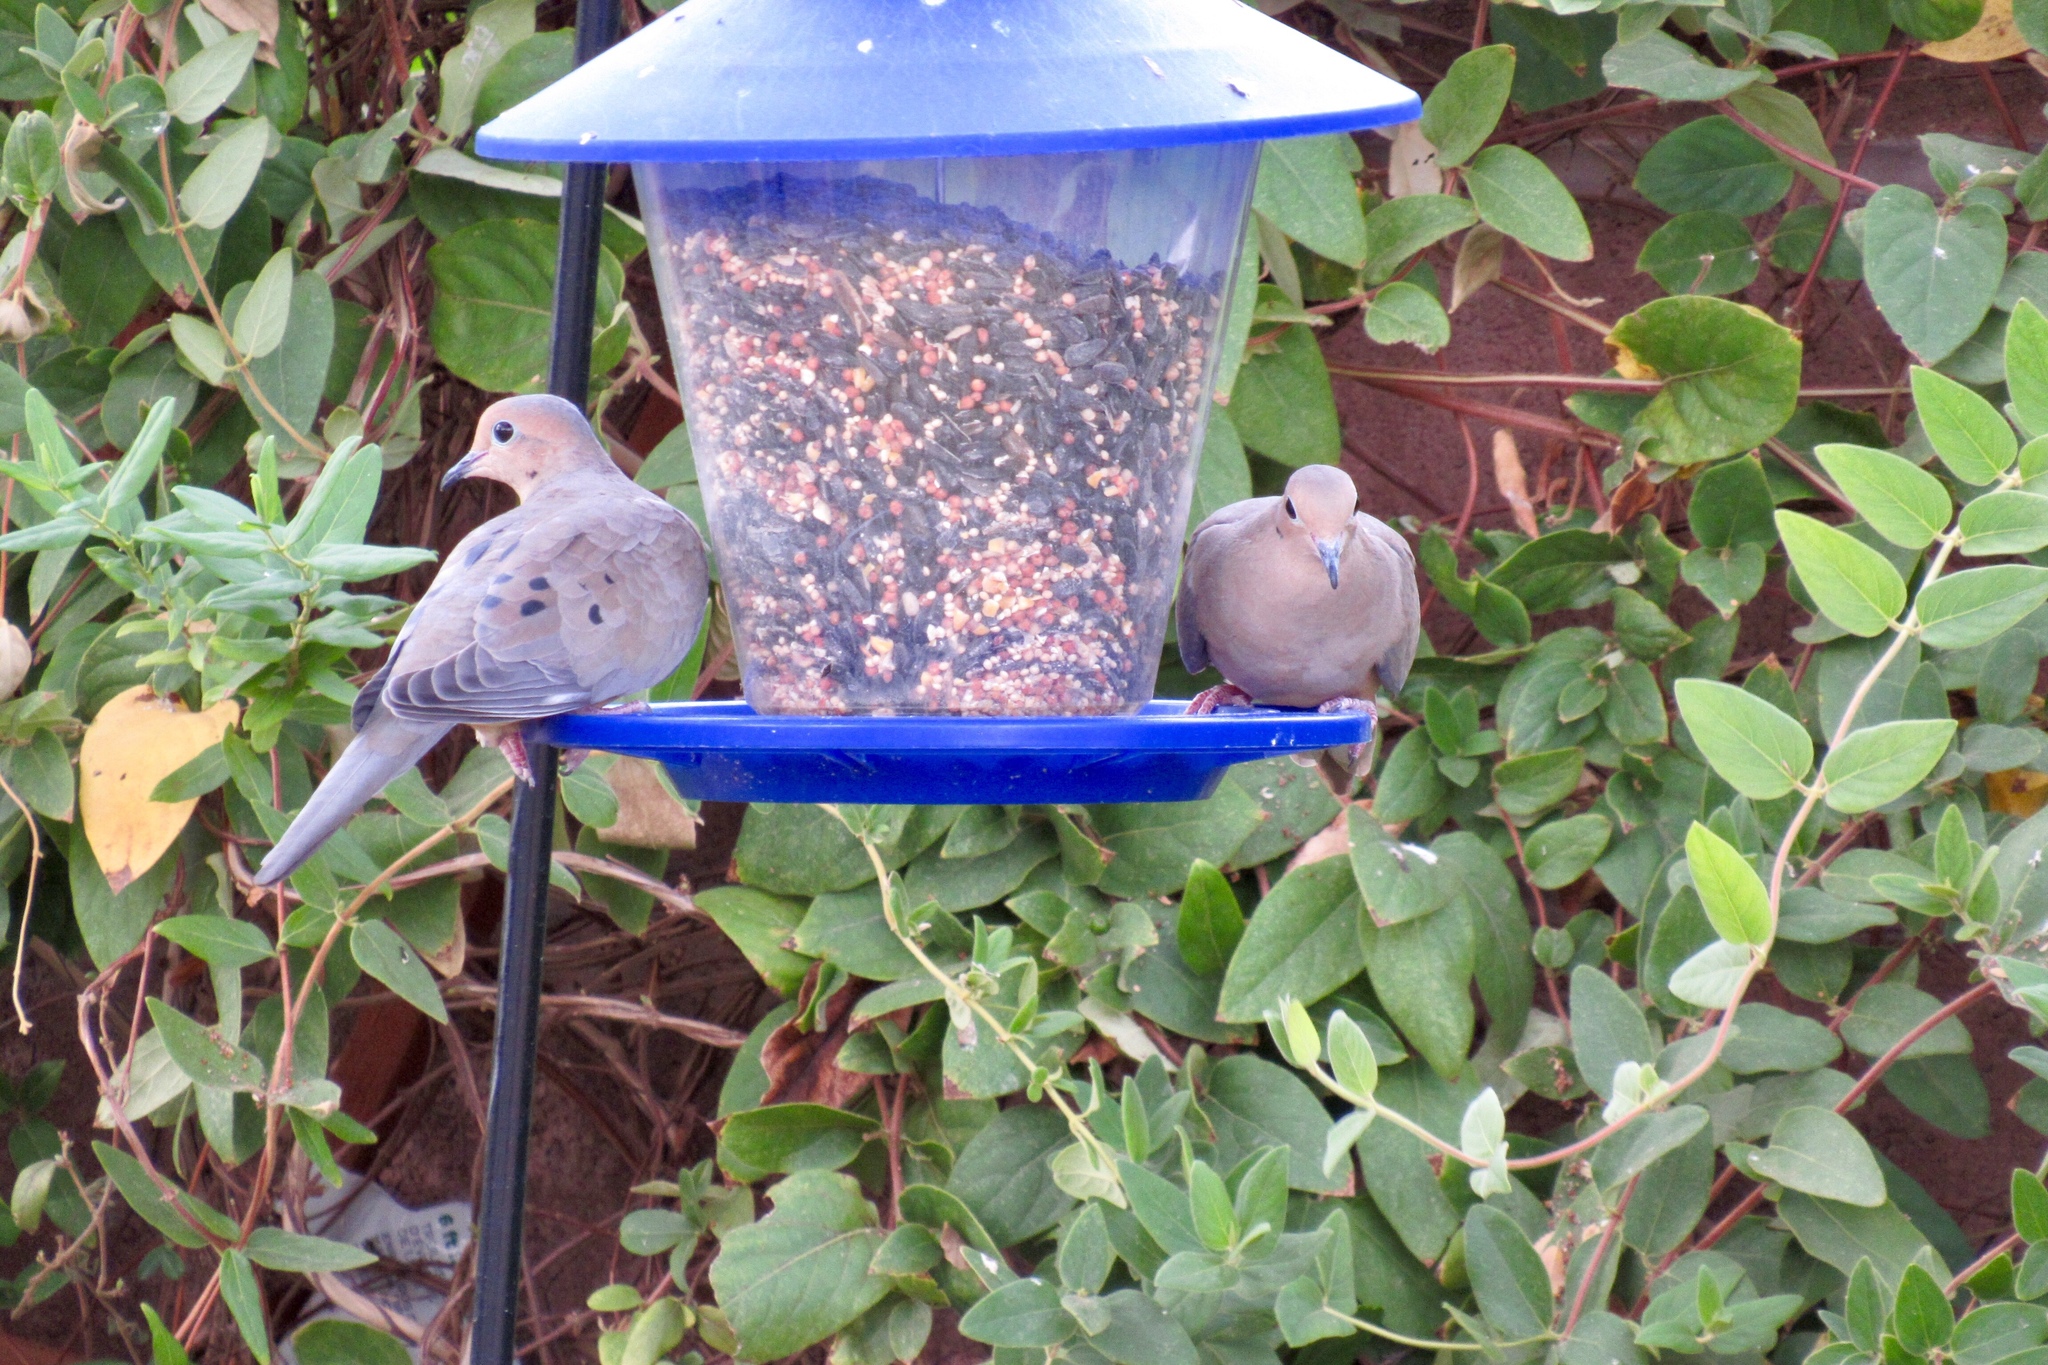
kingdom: Animalia
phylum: Chordata
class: Aves
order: Columbiformes
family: Columbidae
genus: Zenaida
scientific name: Zenaida macroura
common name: Mourning dove
